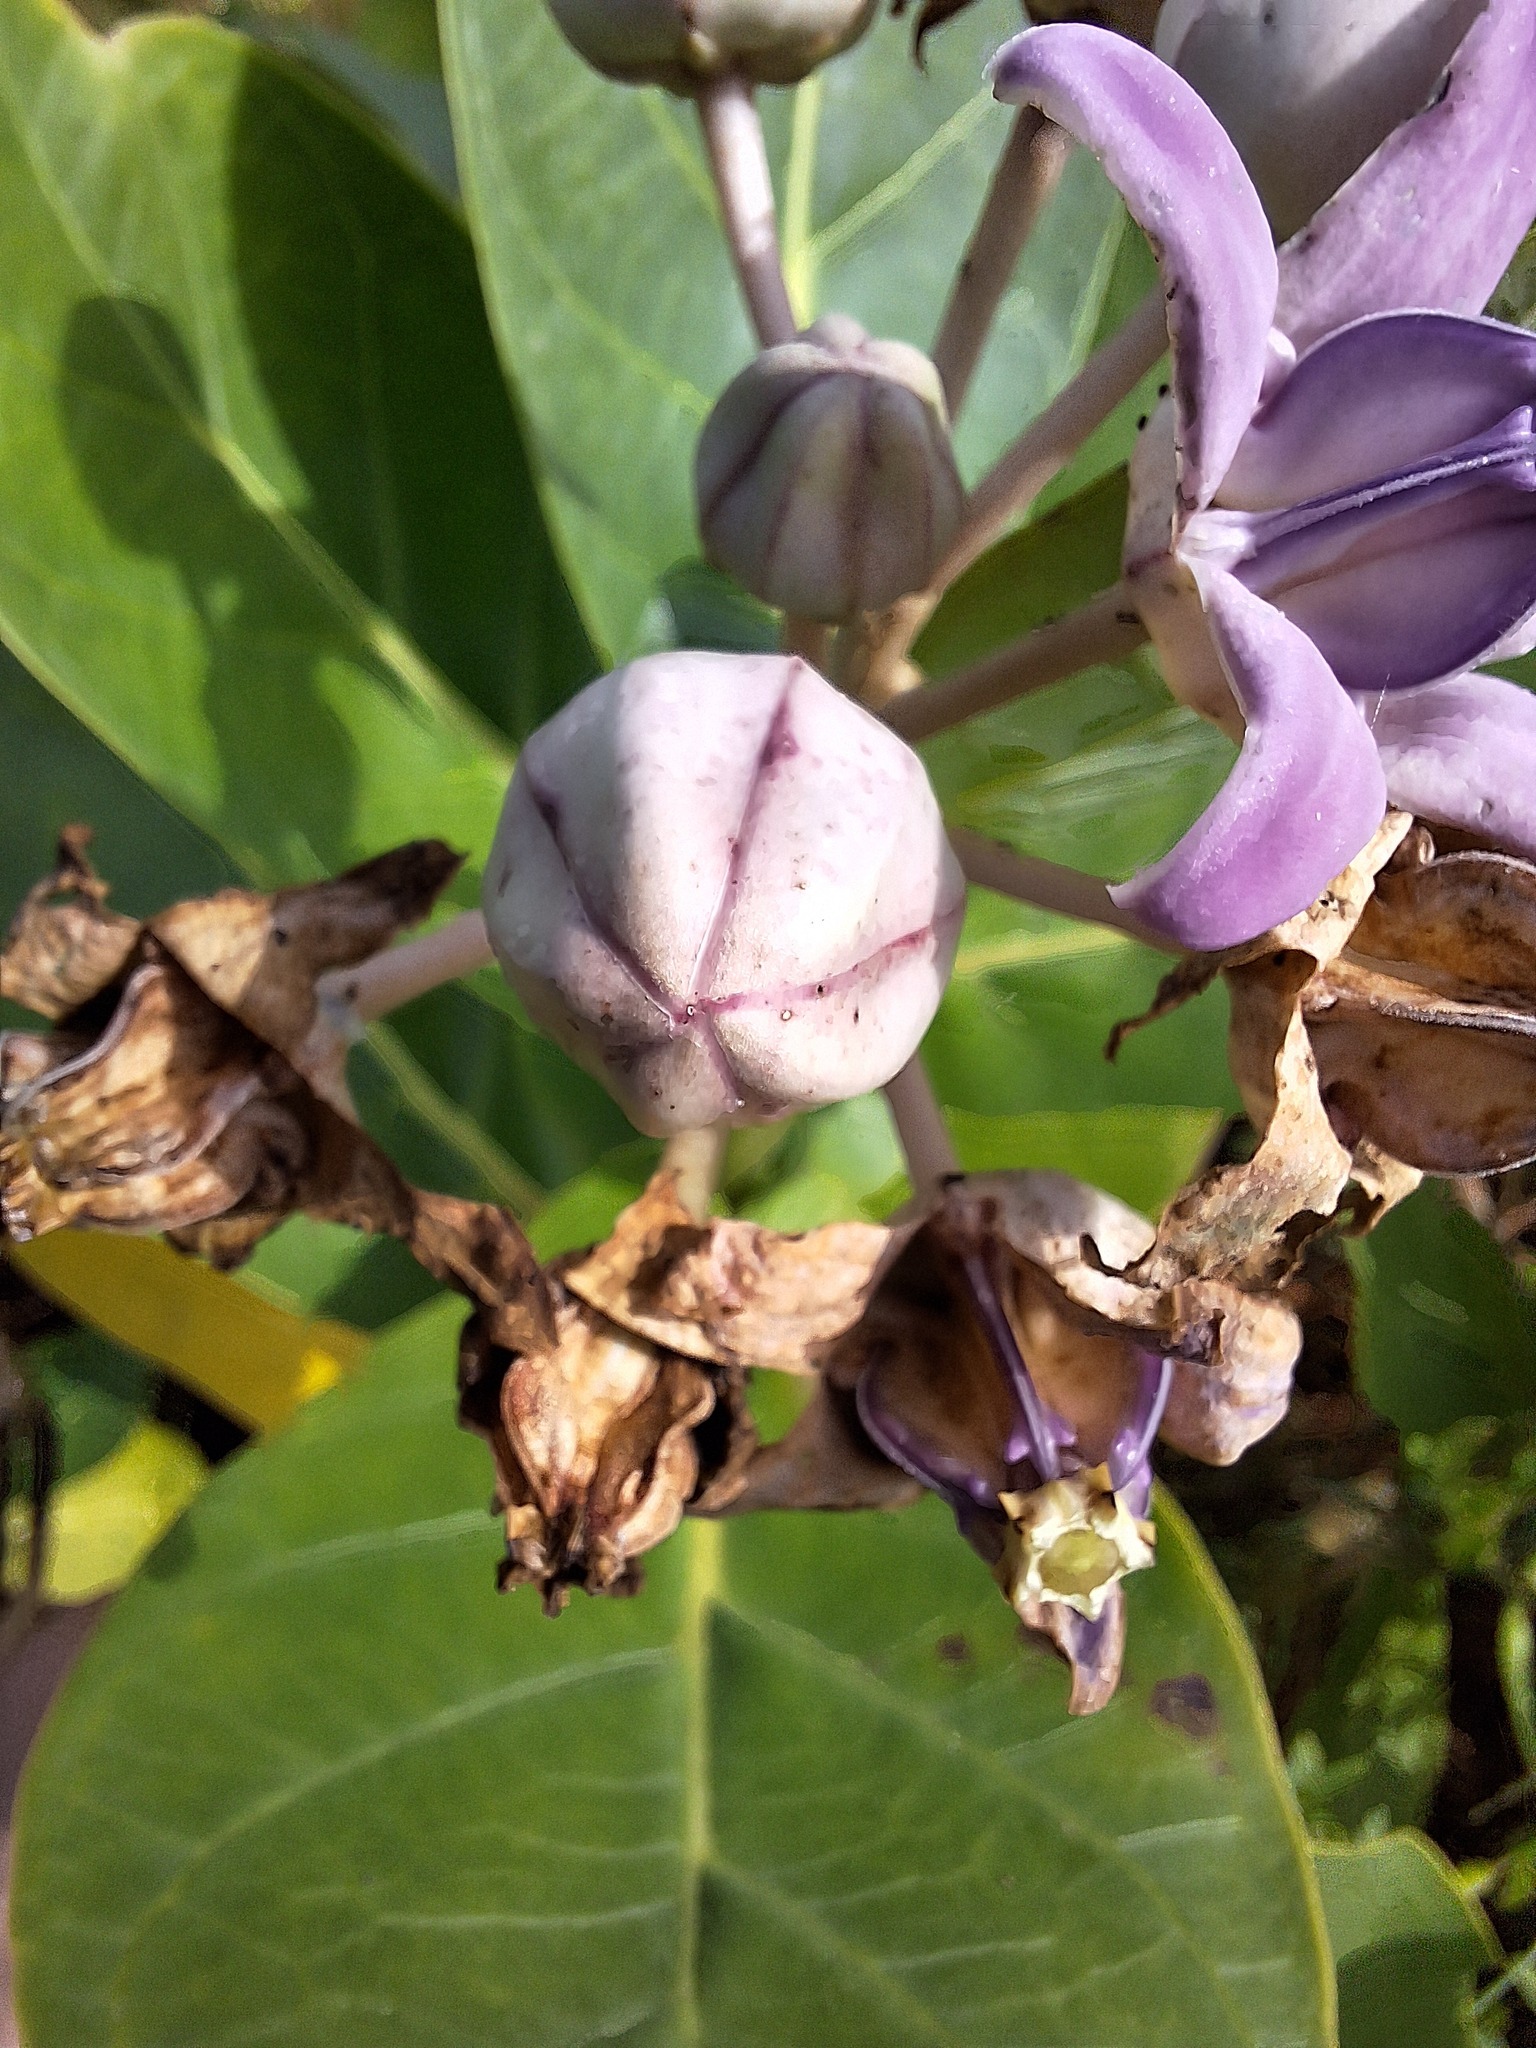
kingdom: Plantae
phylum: Tracheophyta
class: Magnoliopsida
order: Gentianales
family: Apocynaceae
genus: Calotropis
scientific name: Calotropis gigantea
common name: Crown flower
